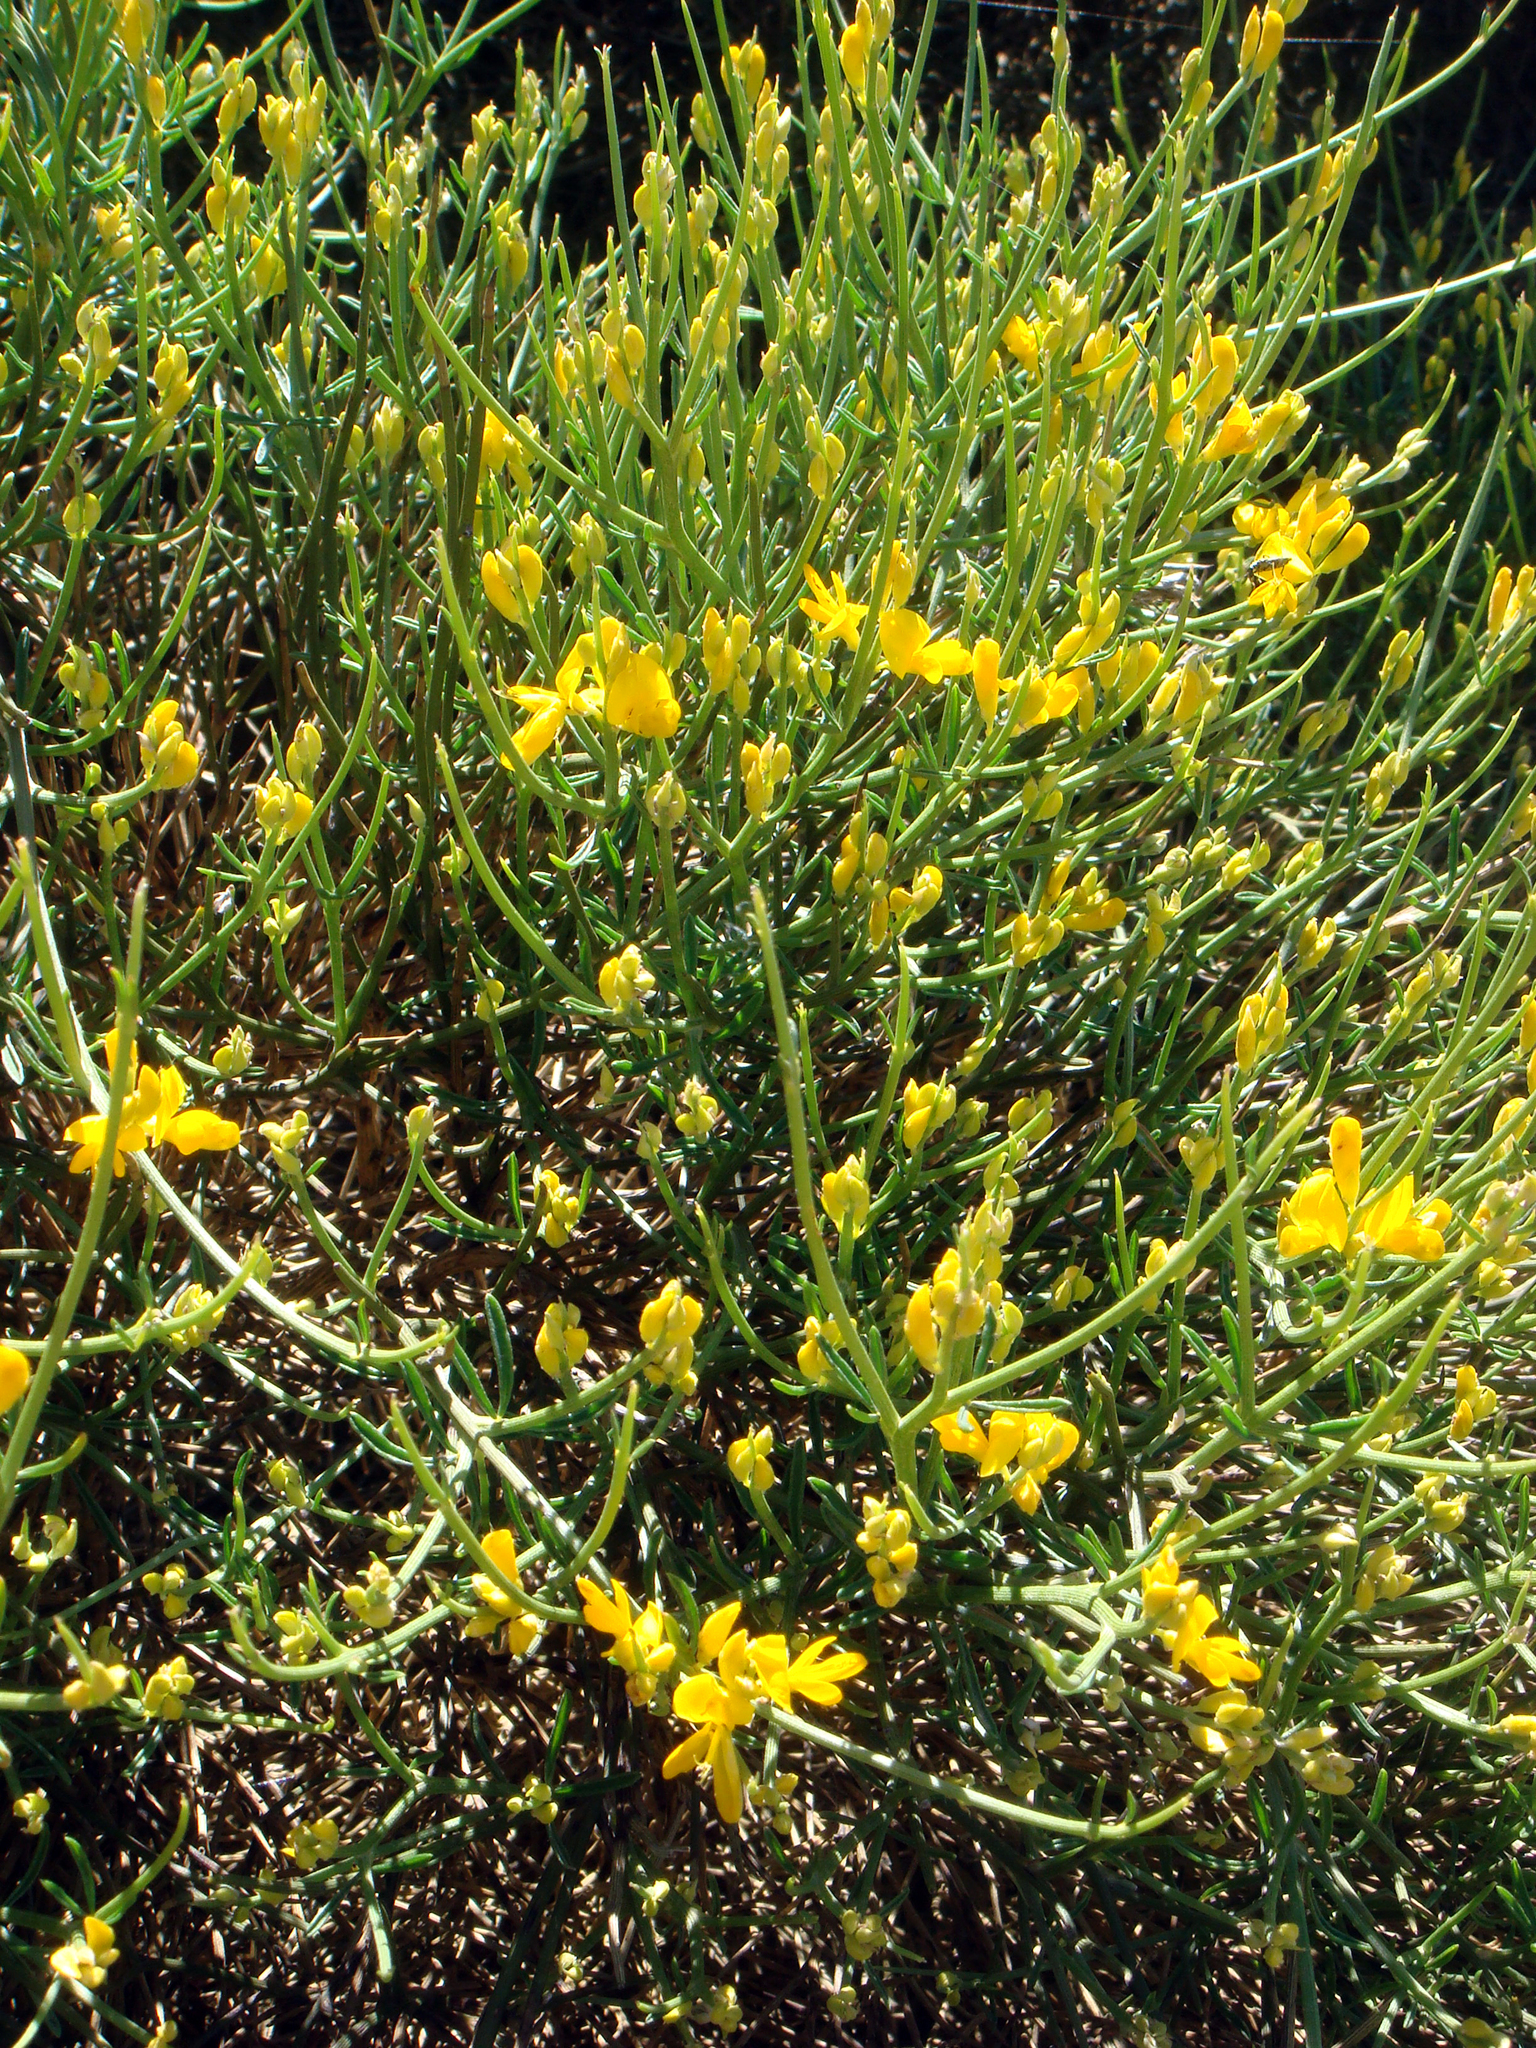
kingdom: Plantae
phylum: Tracheophyta
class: Magnoliopsida
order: Fabales
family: Fabaceae
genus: Genista
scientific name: Genista sardoa
